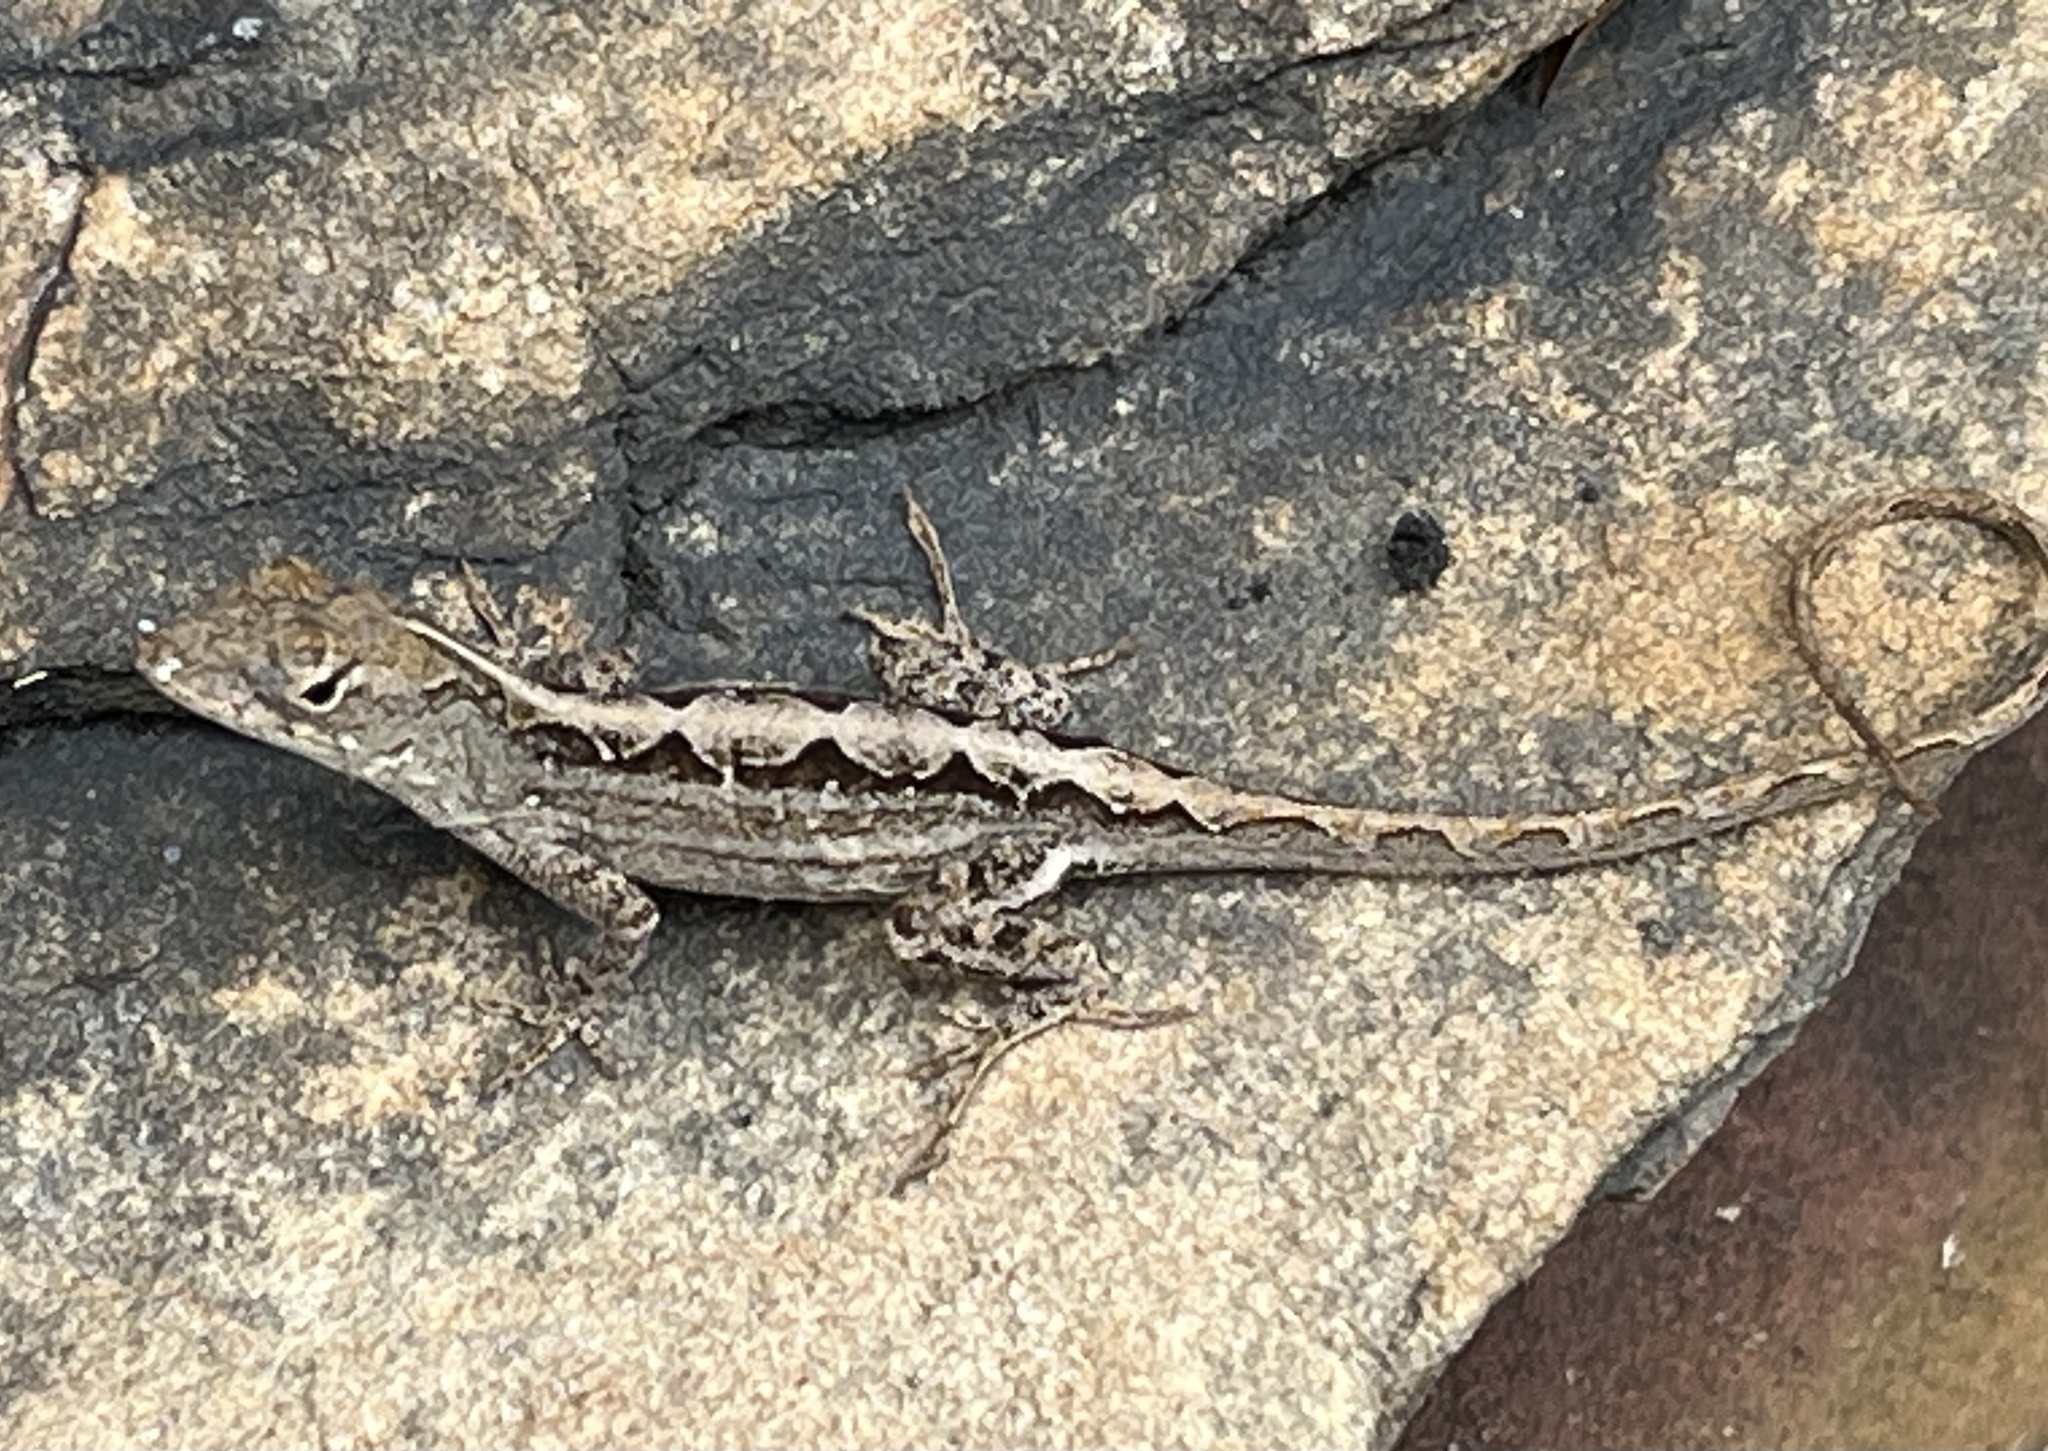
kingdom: Animalia
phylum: Chordata
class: Squamata
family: Dactyloidae
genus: Anolis
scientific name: Anolis sagrei
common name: Brown anole
